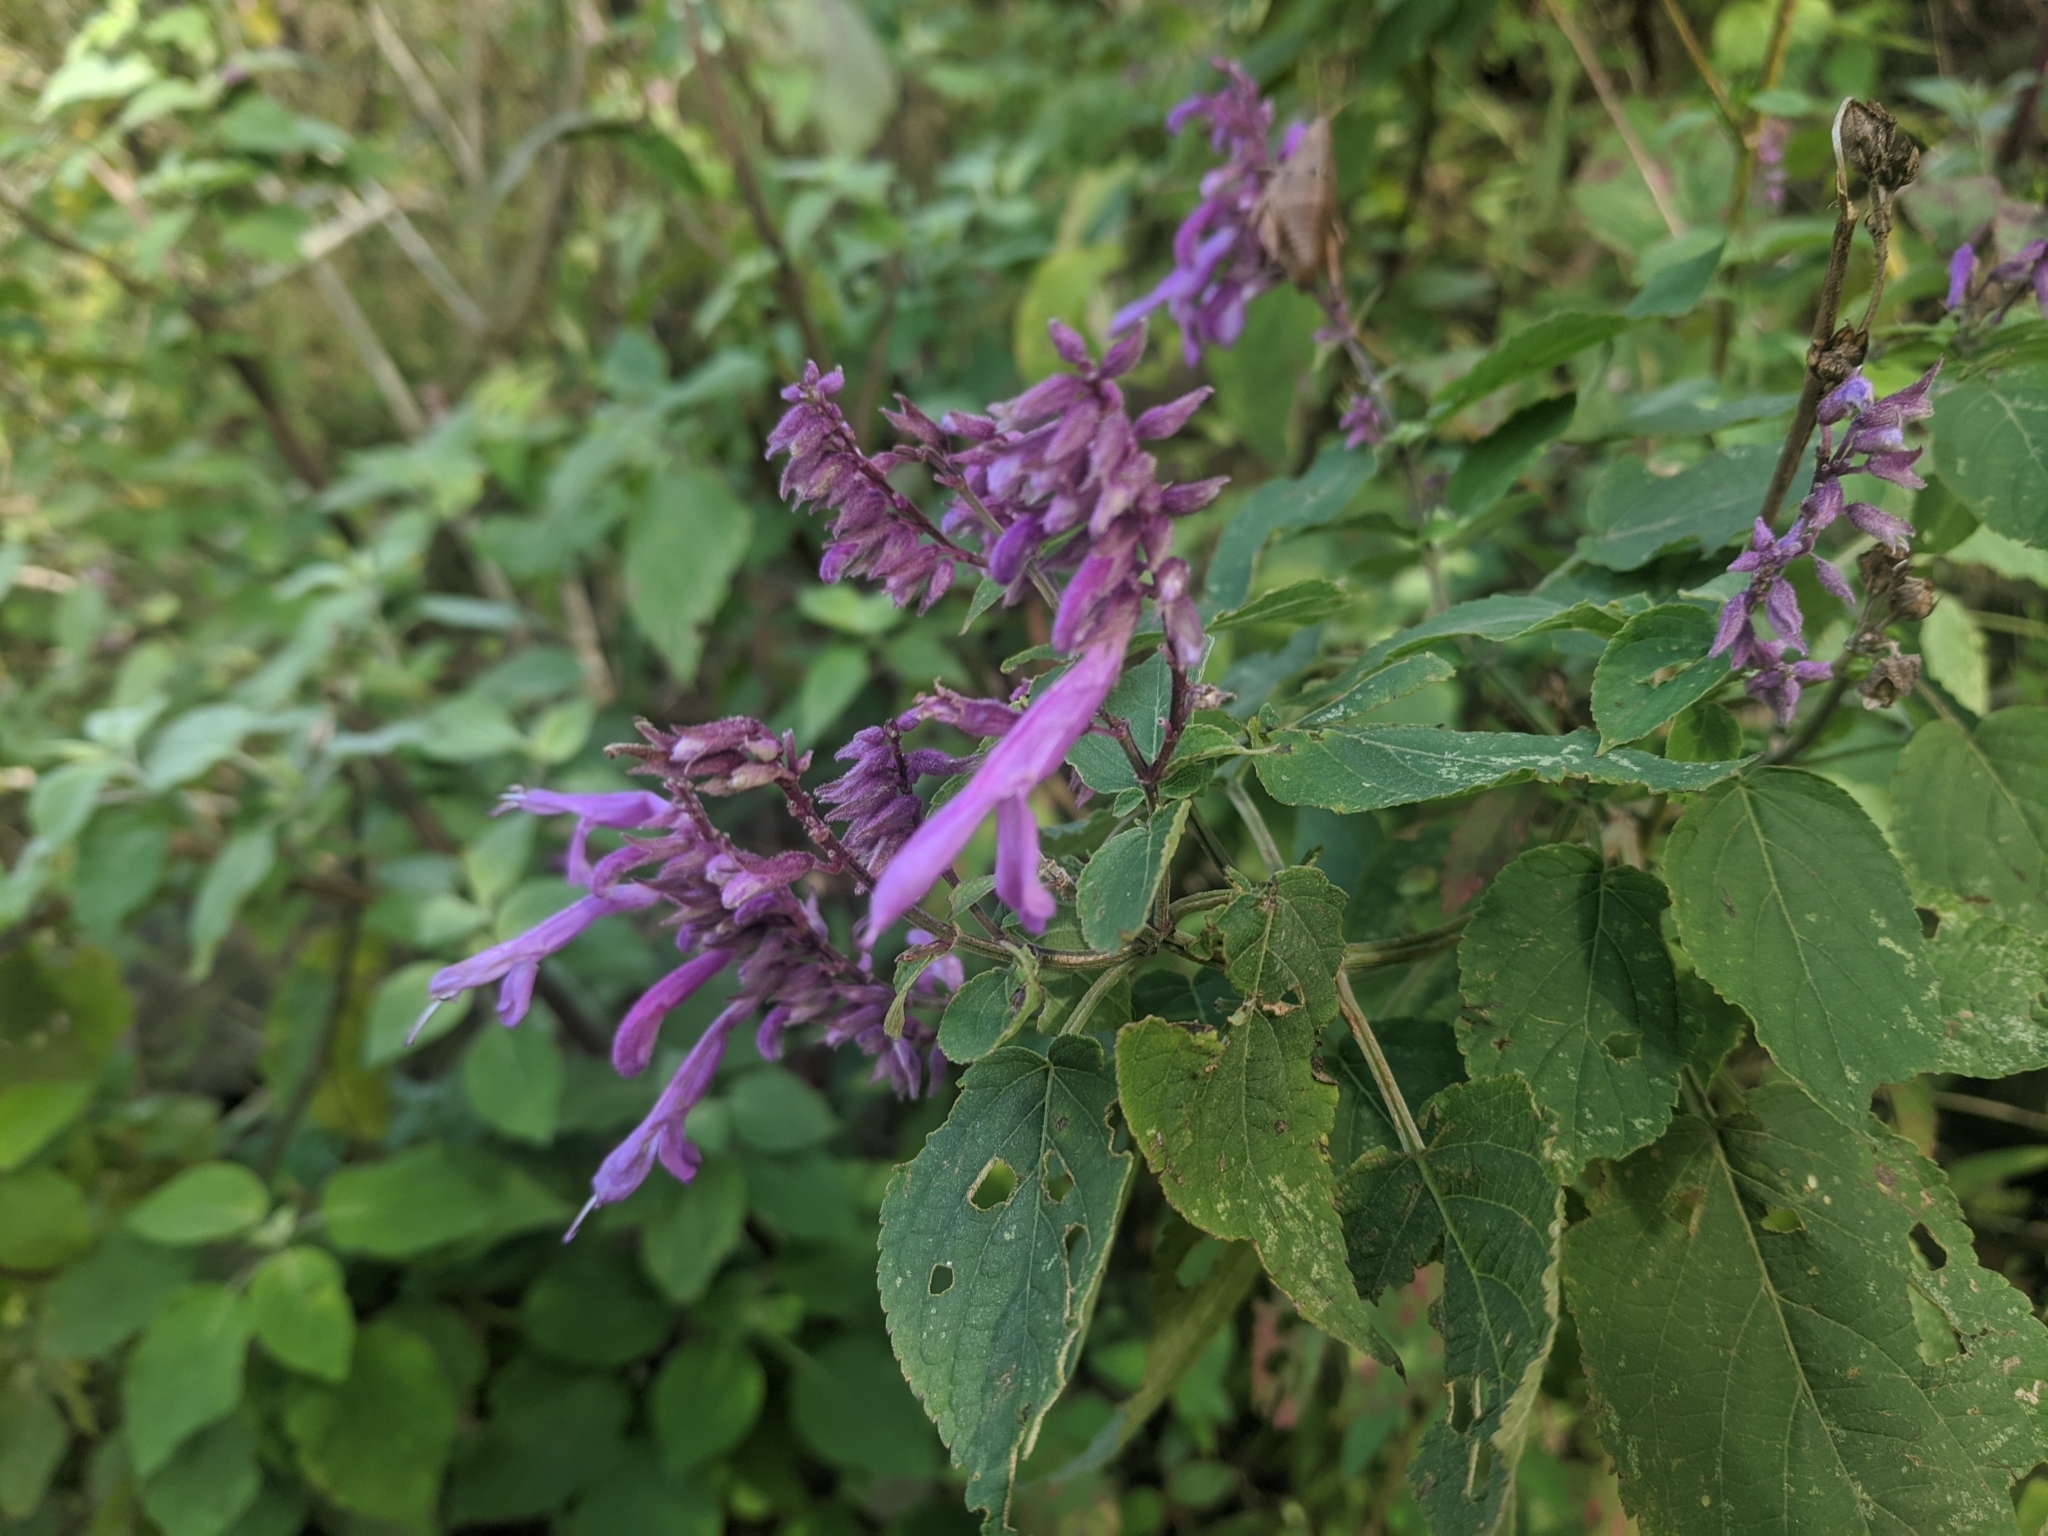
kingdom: Plantae
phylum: Tracheophyta
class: Magnoliopsida
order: Lamiales
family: Lamiaceae
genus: Salvia
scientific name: Salvia purpurea
